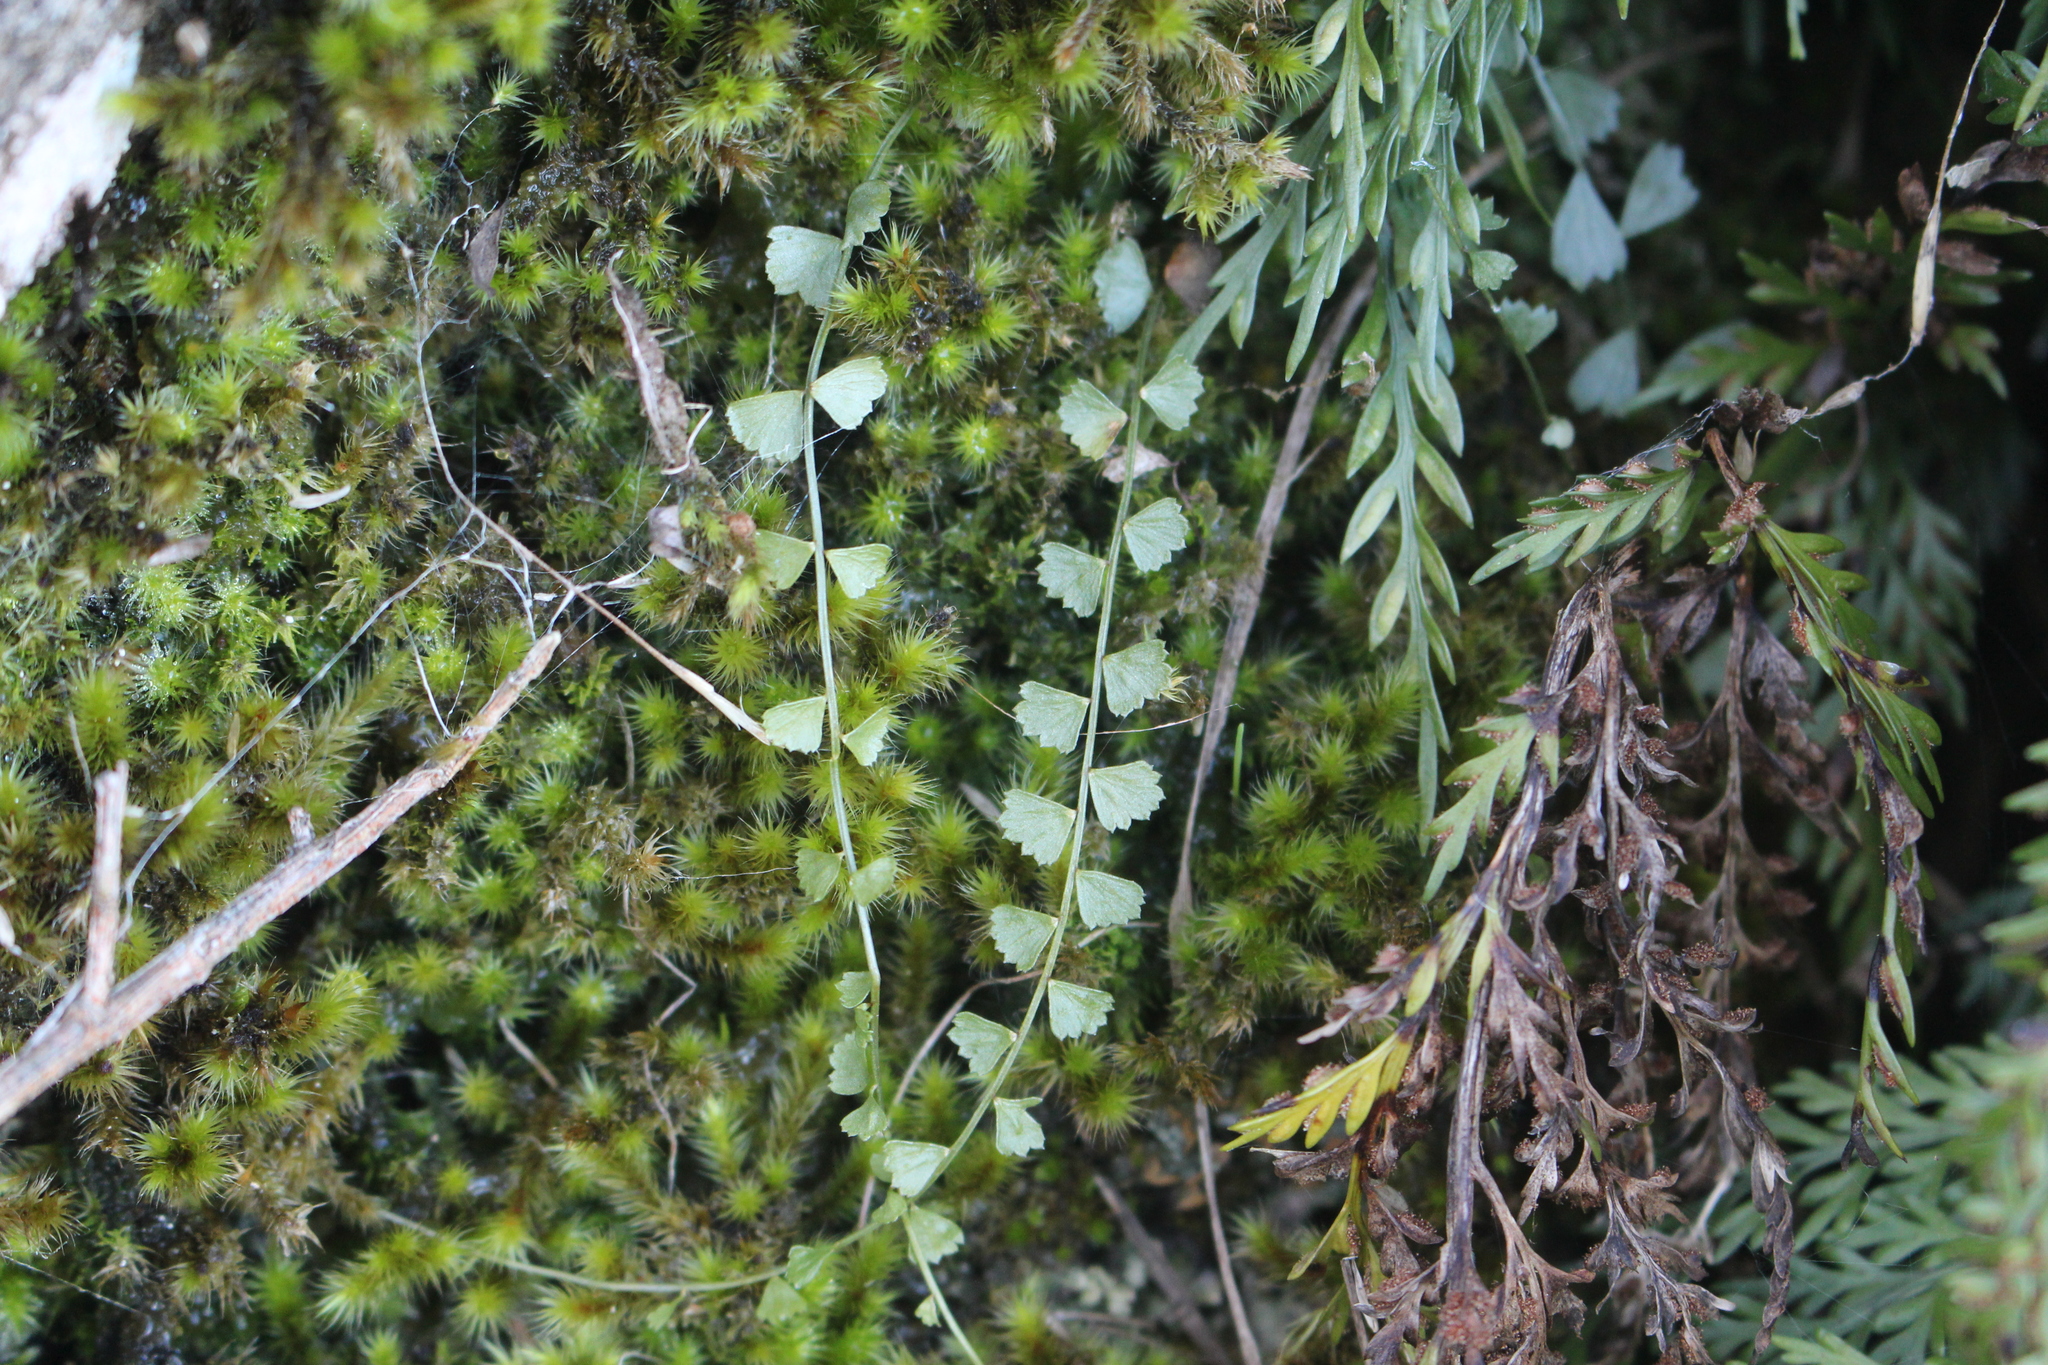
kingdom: Plantae
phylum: Tracheophyta
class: Polypodiopsida
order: Polypodiales
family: Aspleniaceae
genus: Asplenium
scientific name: Asplenium flabellifolium
